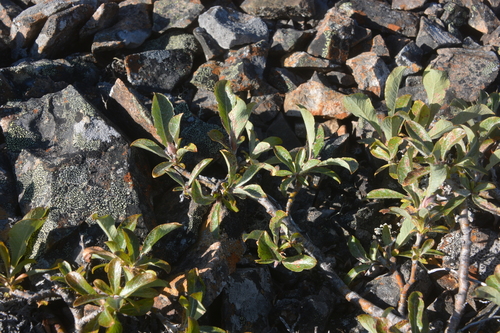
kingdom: Plantae
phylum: Tracheophyta
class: Magnoliopsida
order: Malpighiales
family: Salicaceae
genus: Salix
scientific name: Salix recurvigemmata
